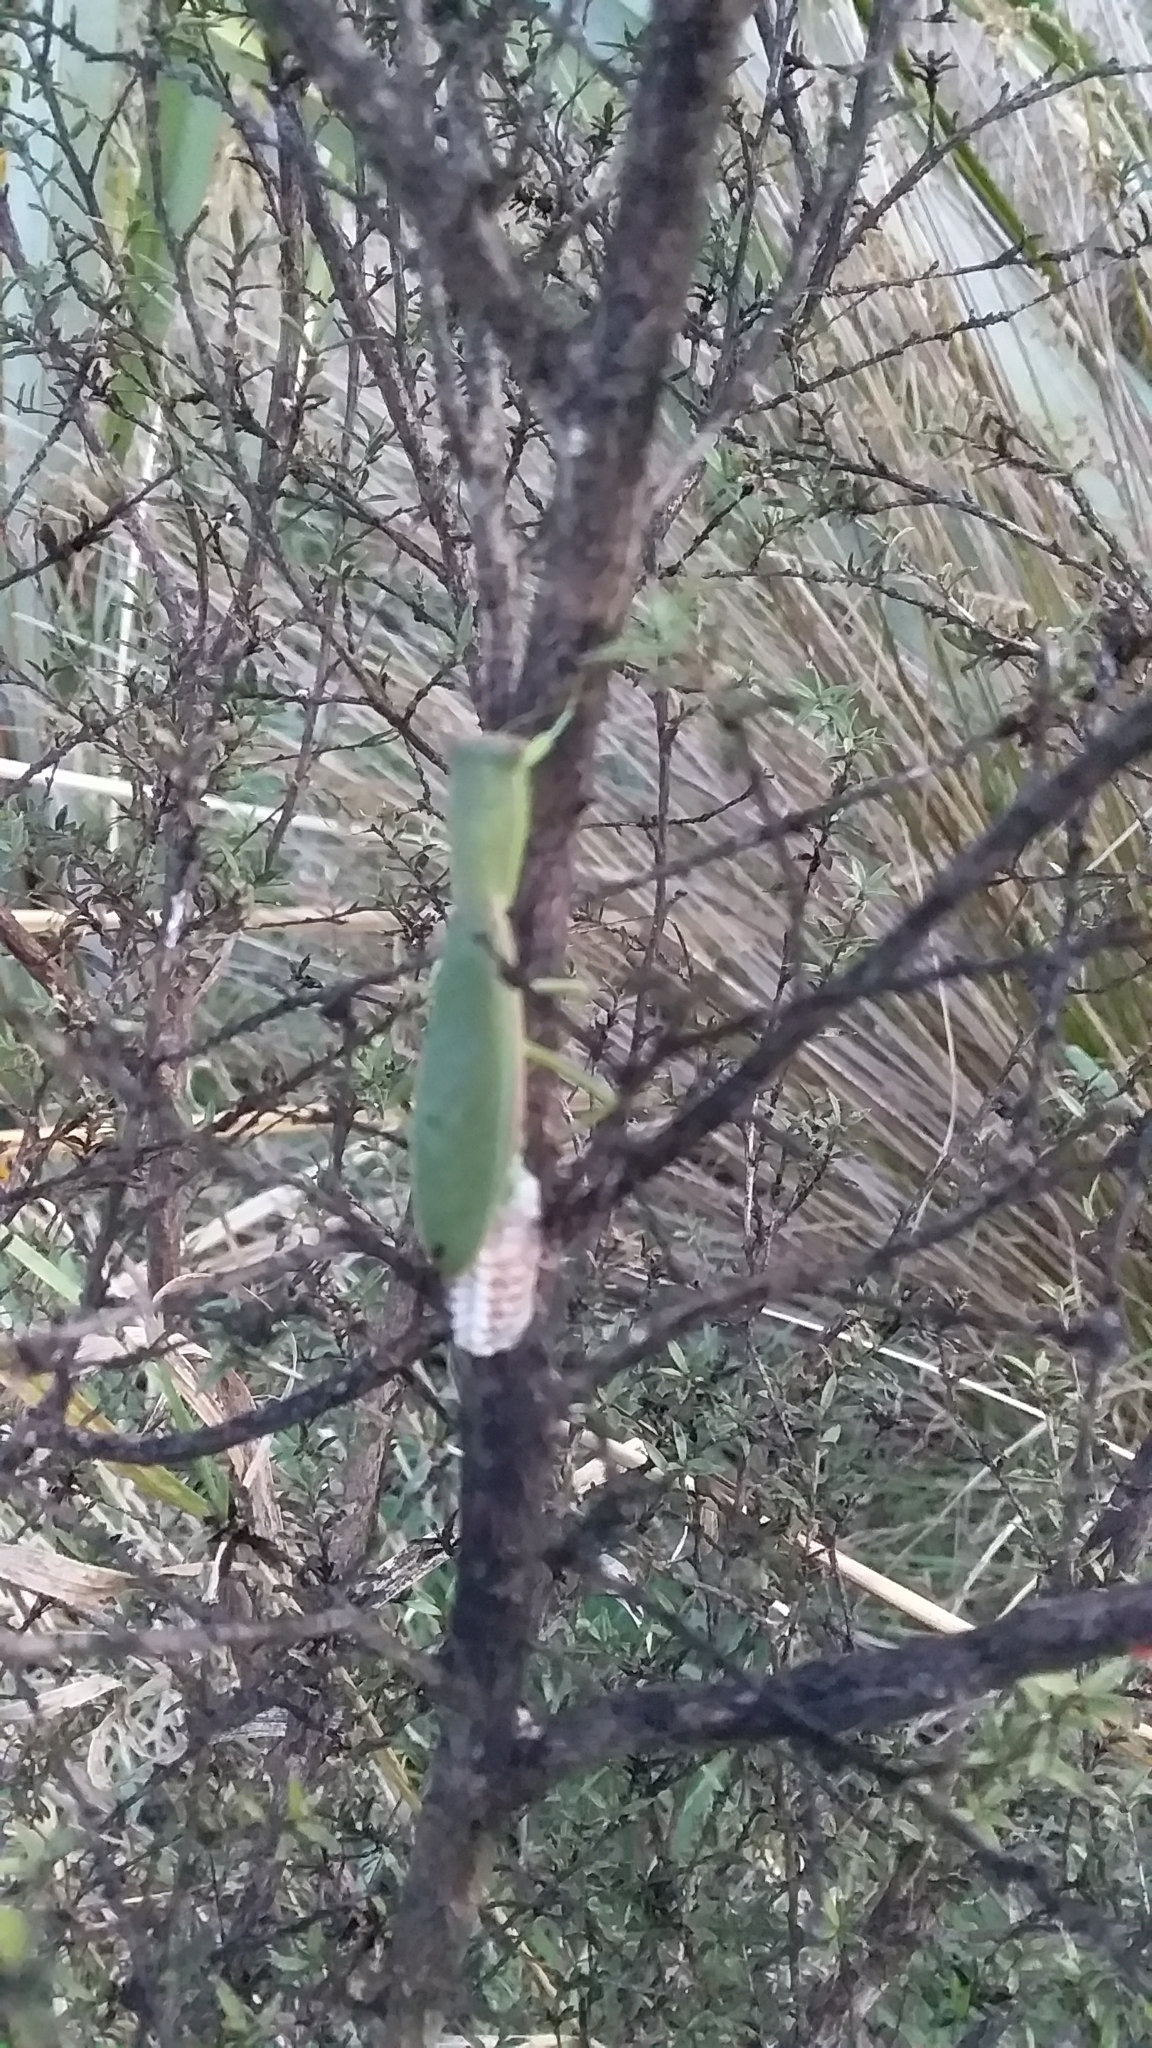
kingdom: Animalia
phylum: Arthropoda
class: Insecta
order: Mantodea
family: Mantidae
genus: Orthodera
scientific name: Orthodera novaezealandiae
